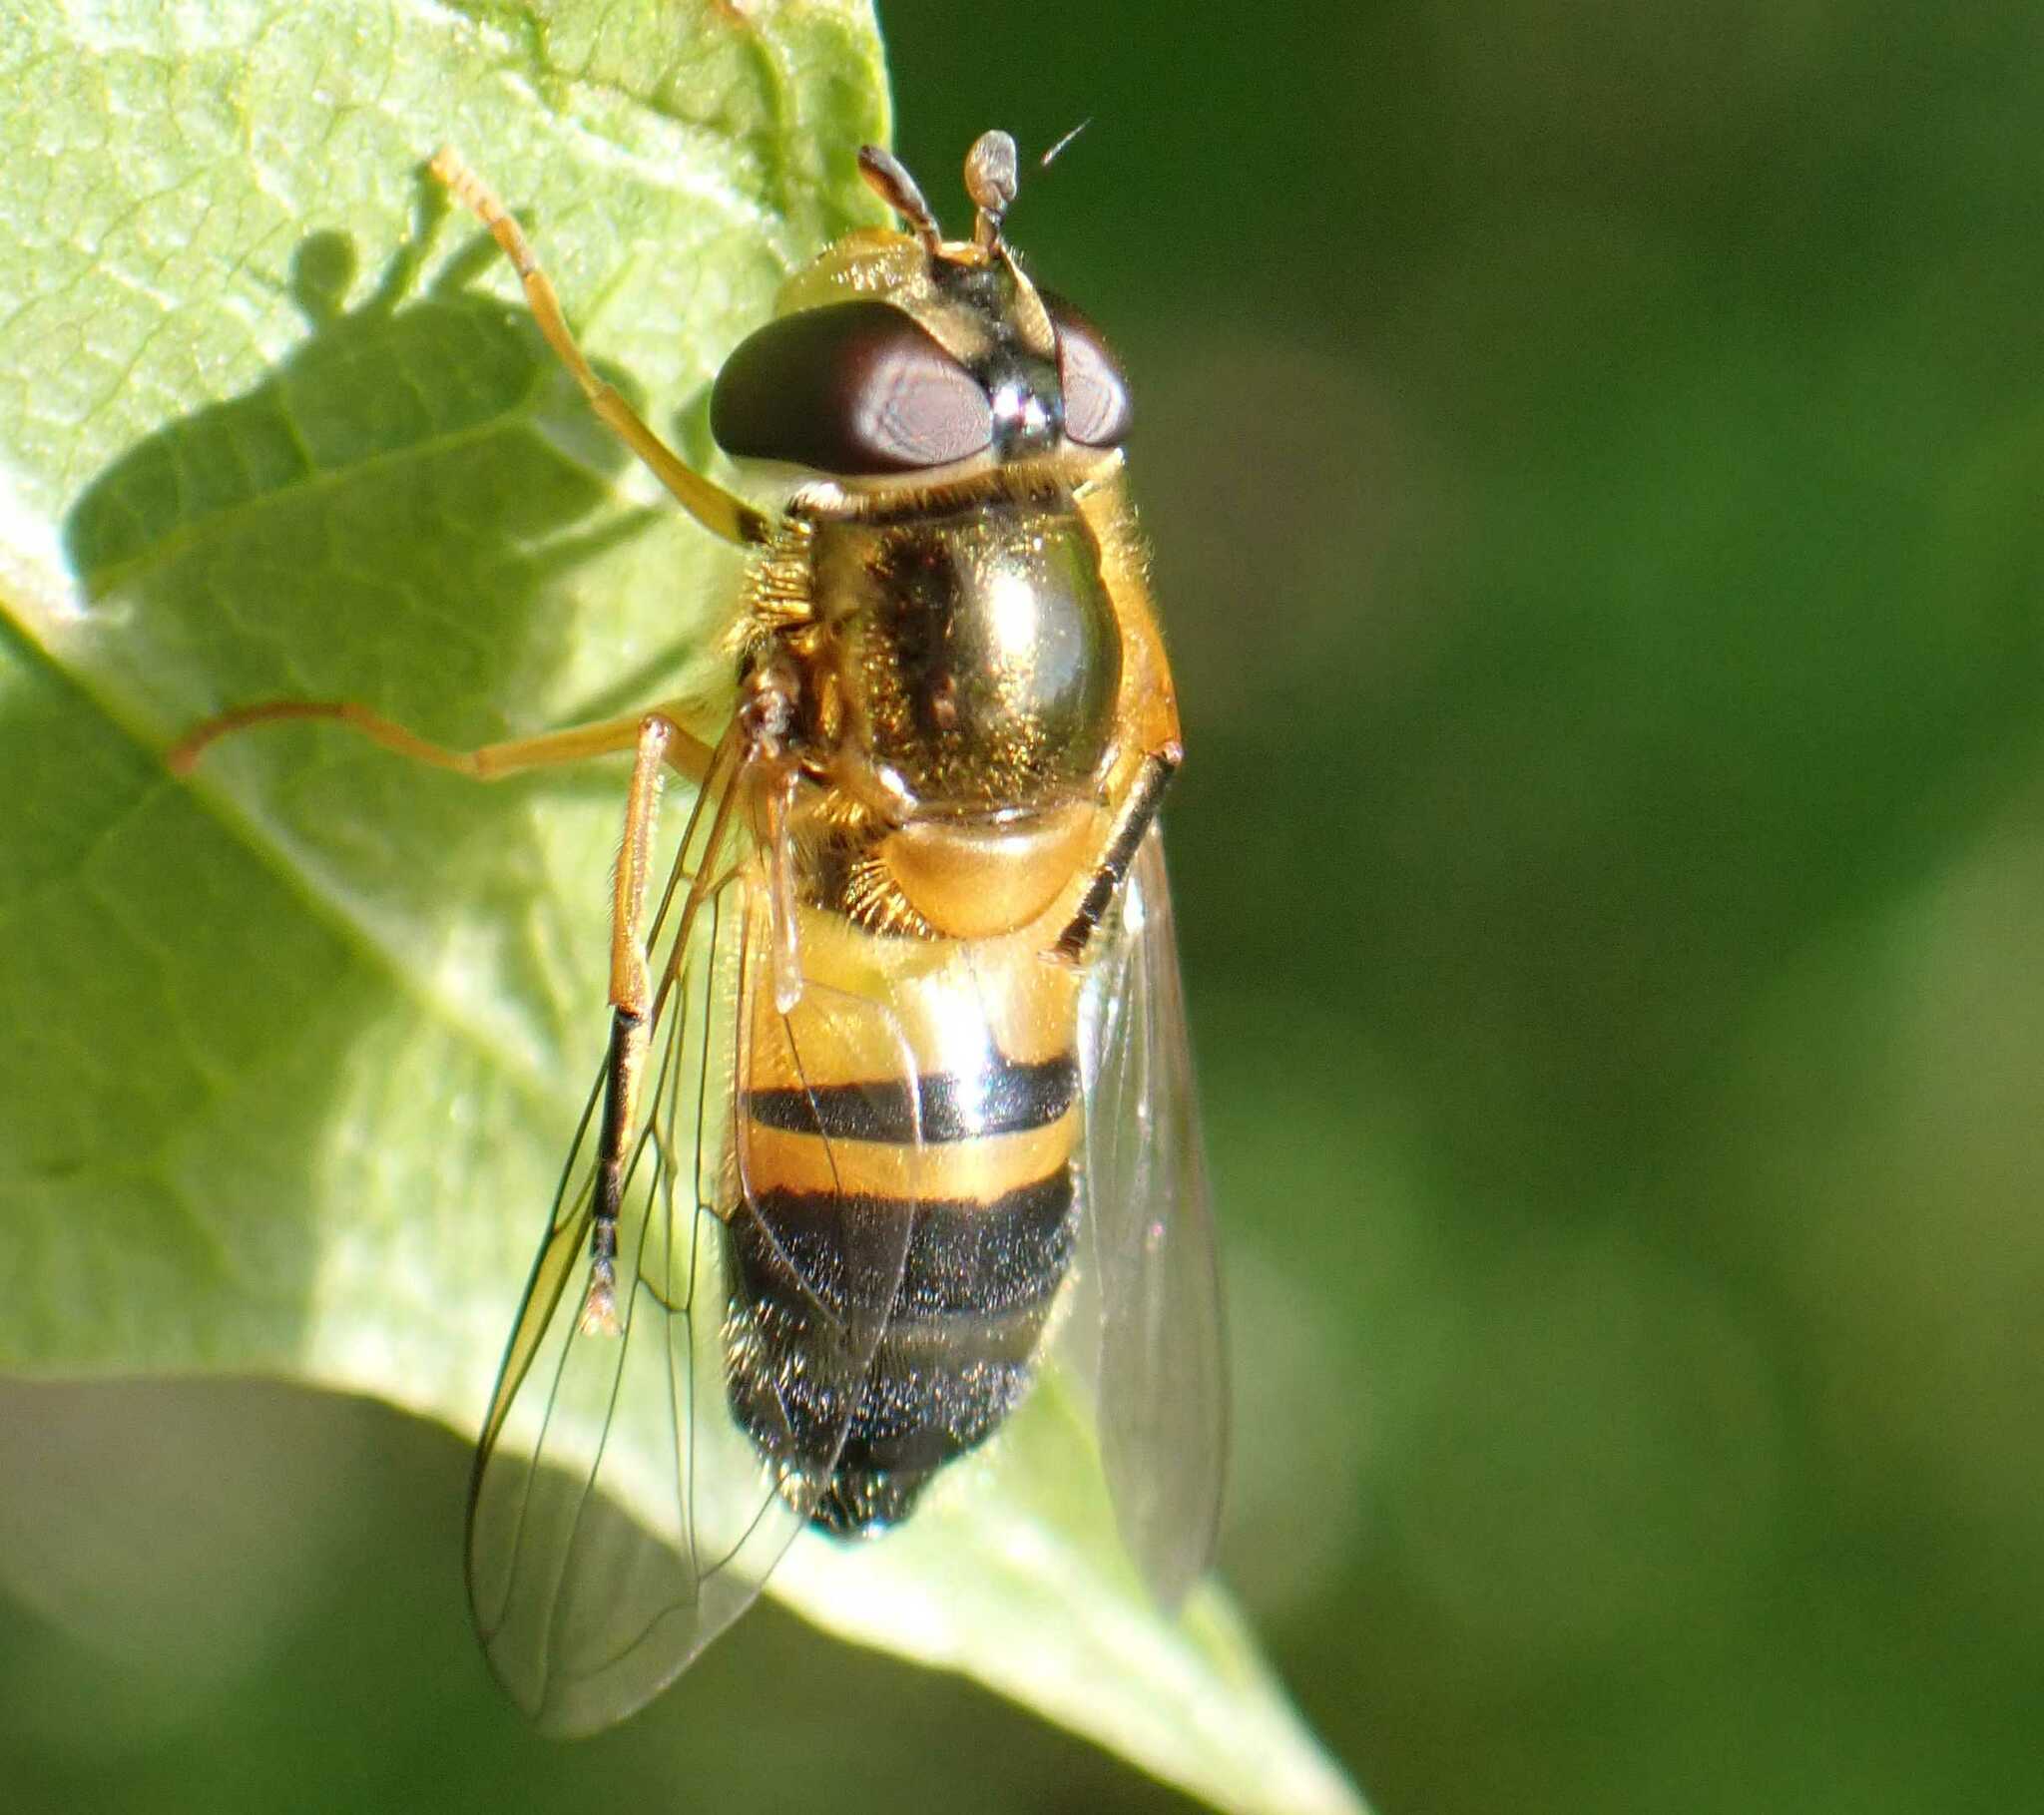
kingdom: Animalia
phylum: Arthropoda
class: Insecta
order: Diptera
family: Syrphidae
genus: Epistrophe
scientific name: Epistrophe eligans
